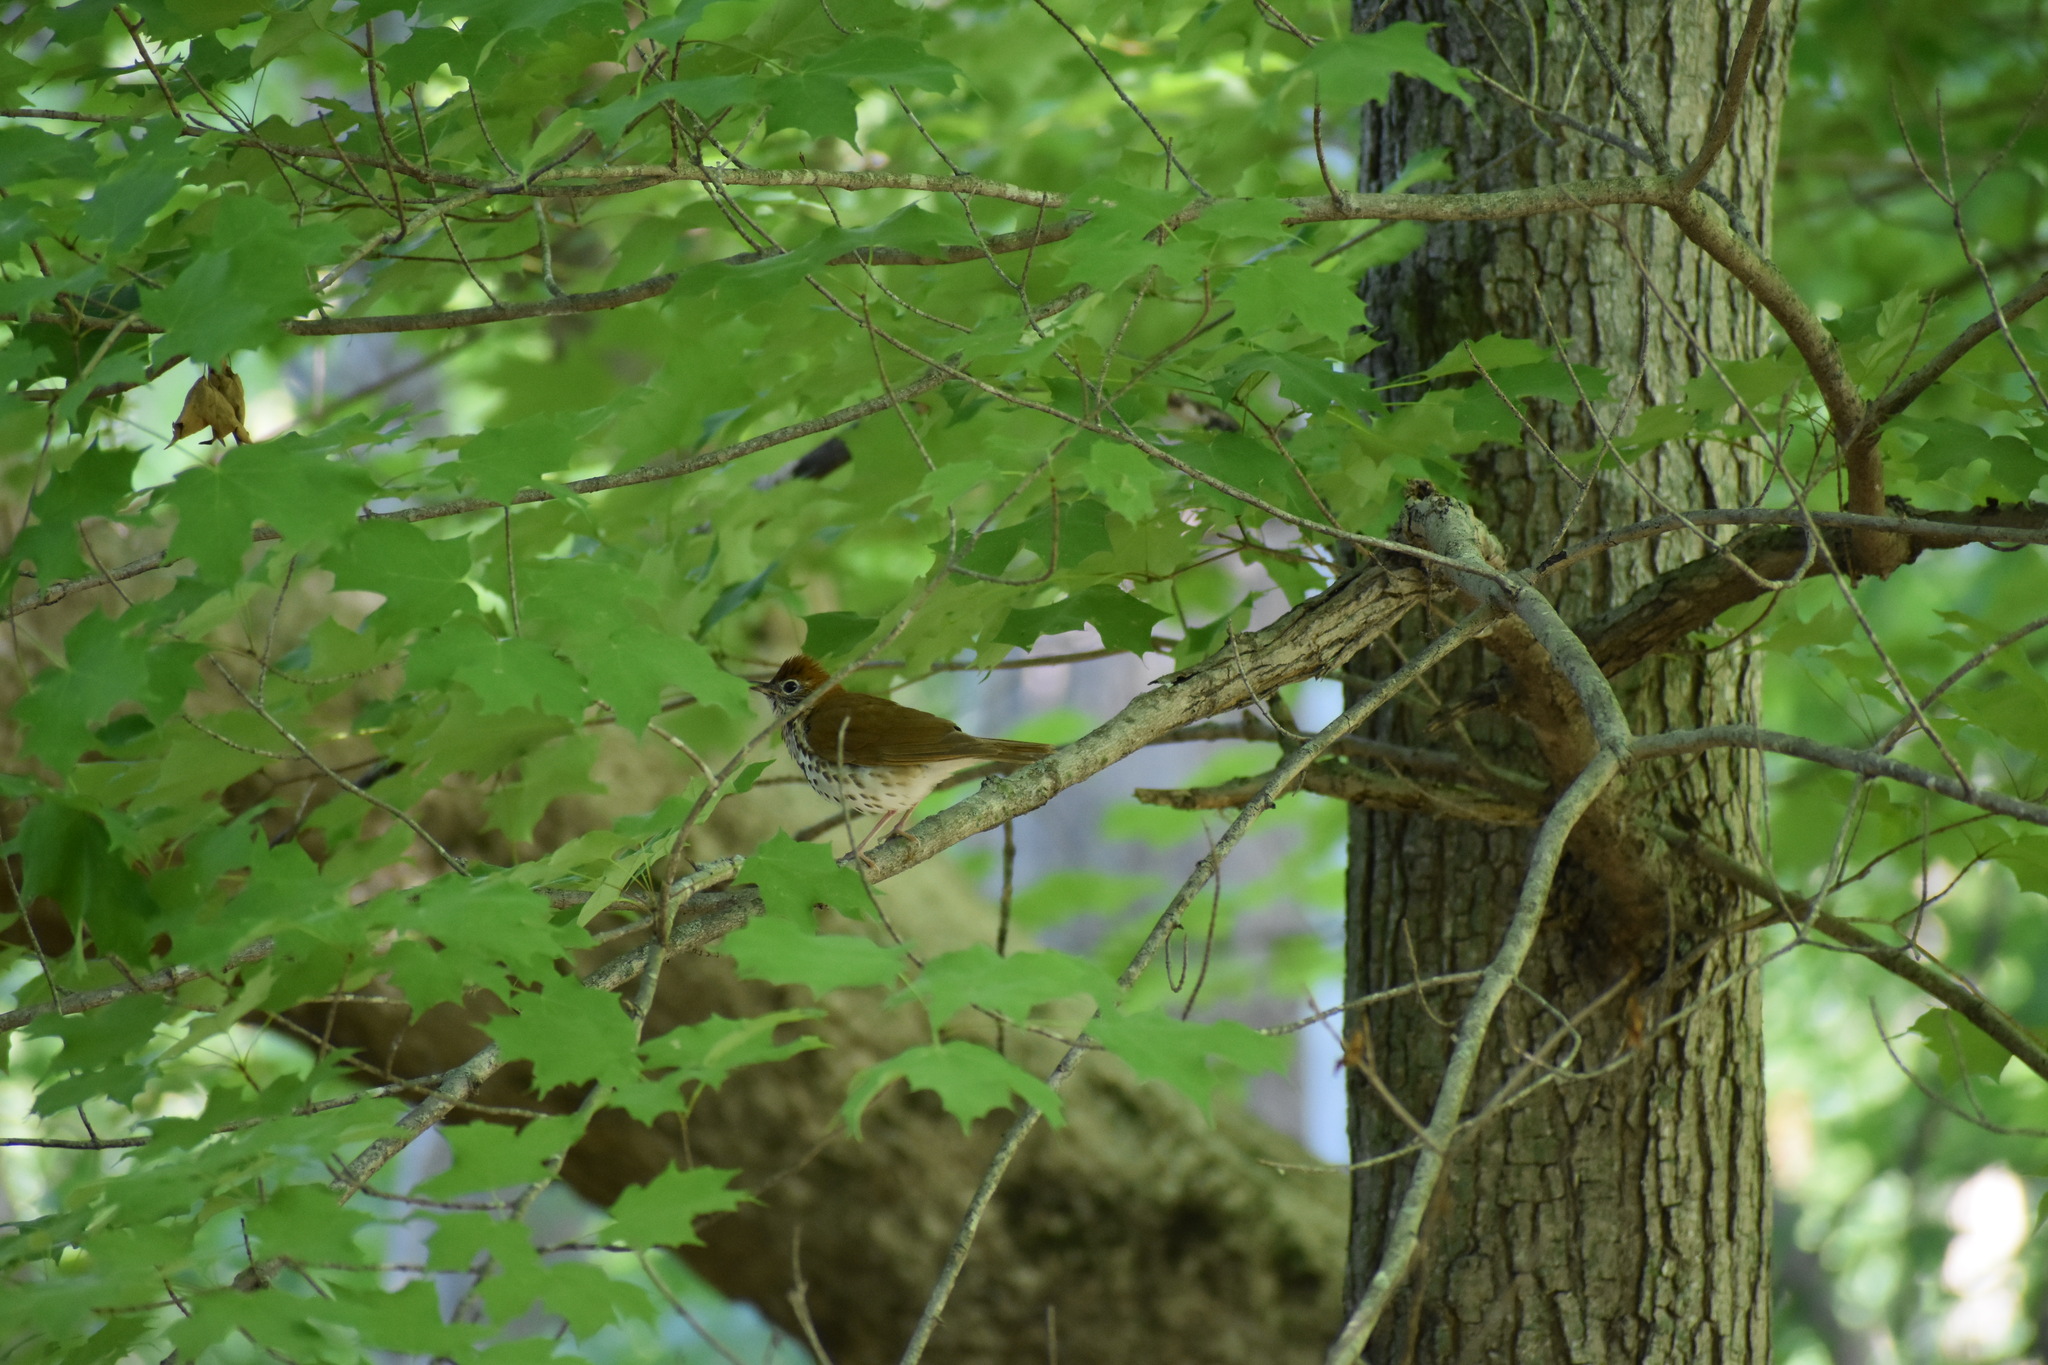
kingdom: Animalia
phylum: Chordata
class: Aves
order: Passeriformes
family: Turdidae
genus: Hylocichla
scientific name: Hylocichla mustelina
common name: Wood thrush
